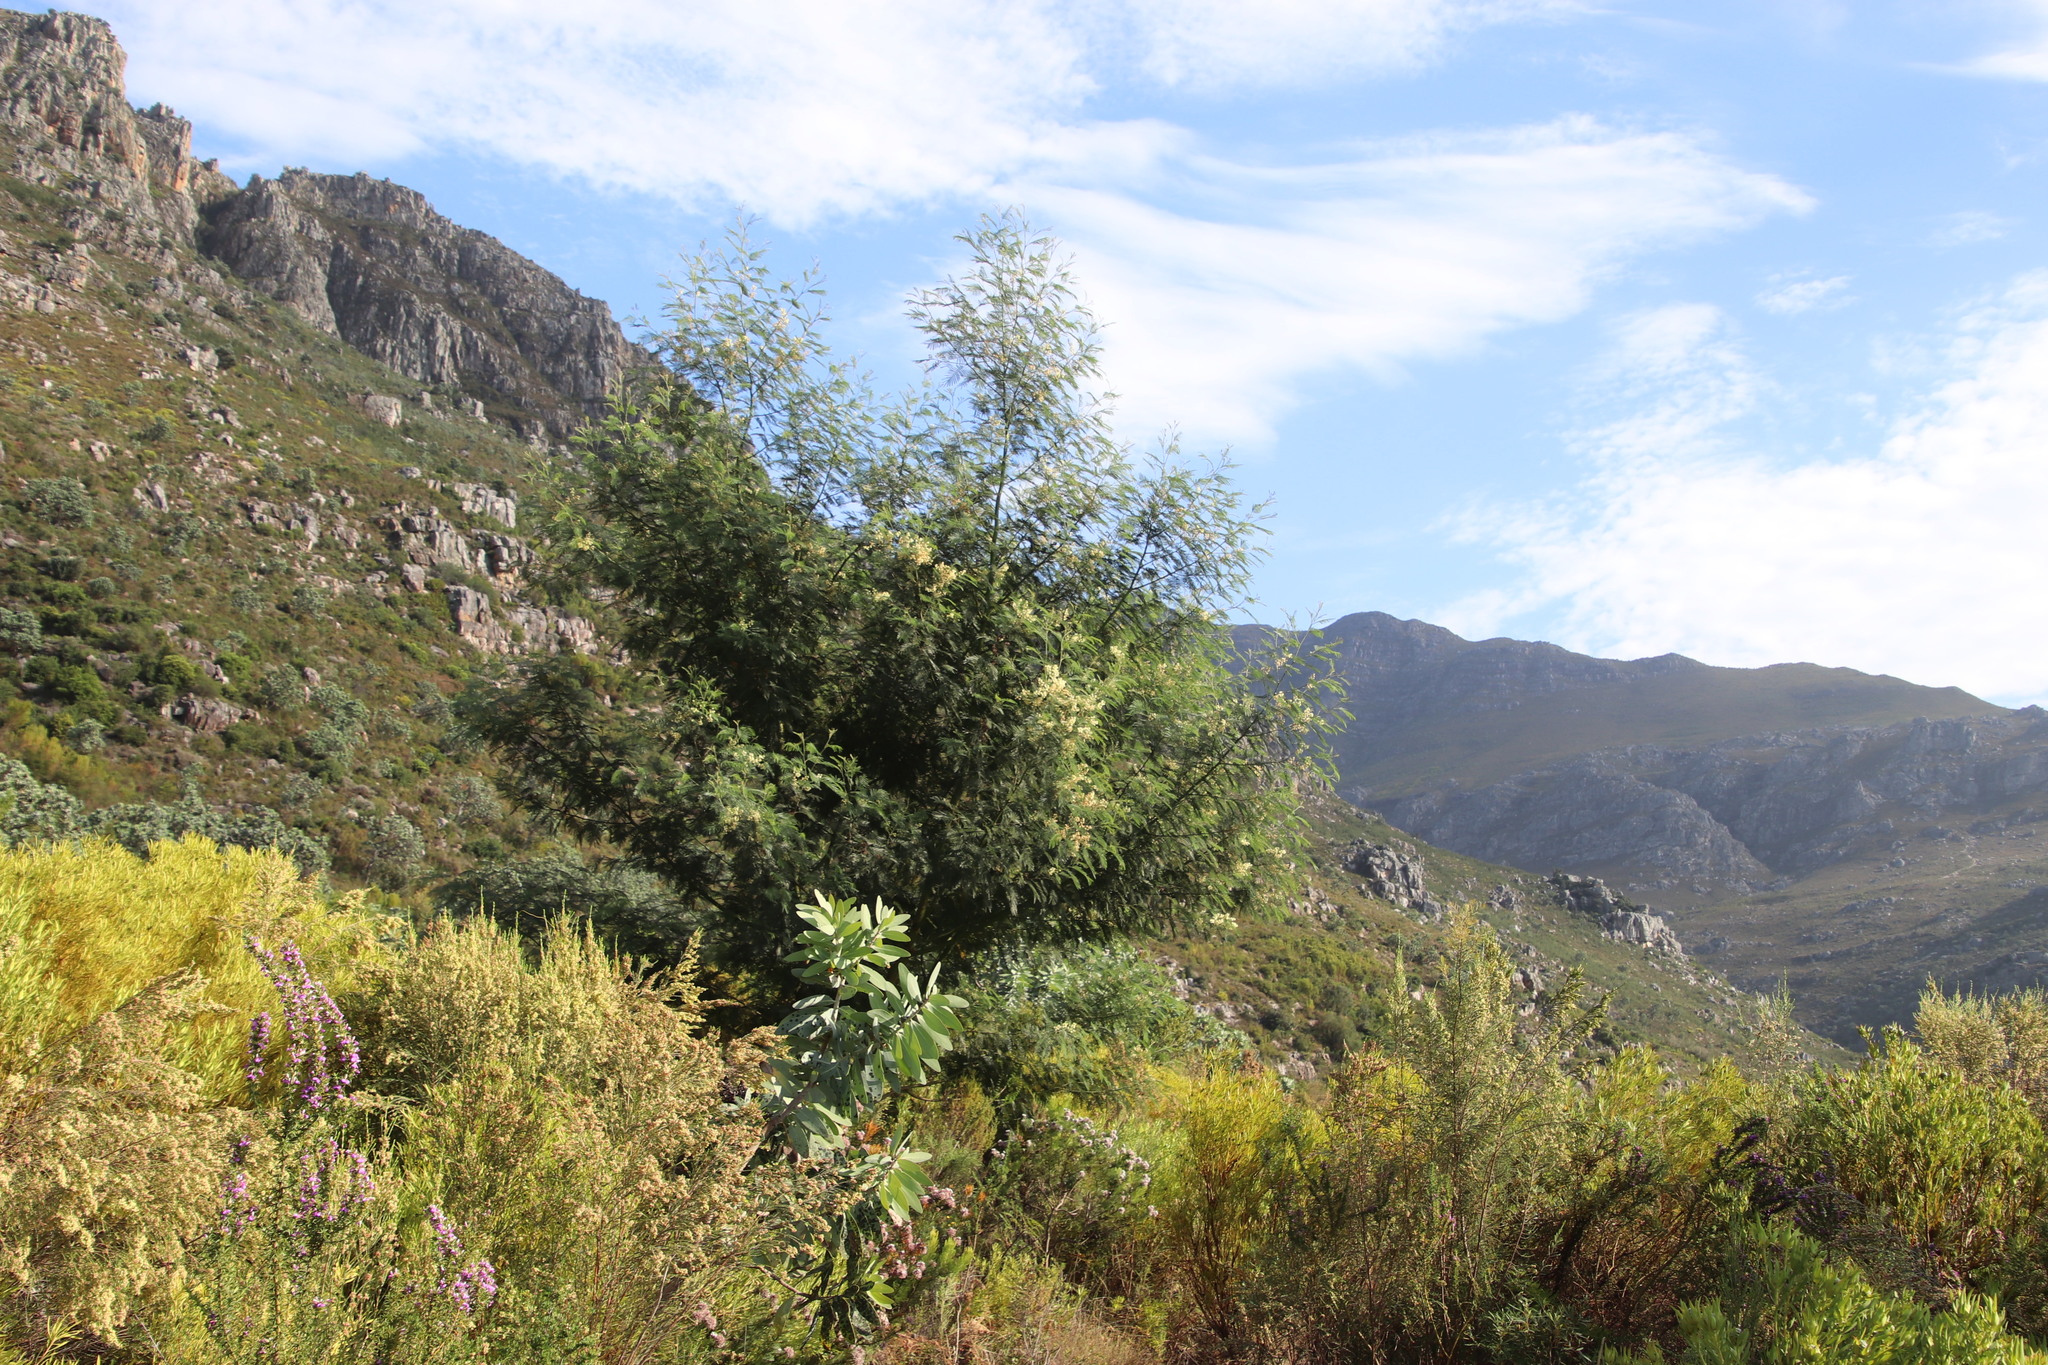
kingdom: Plantae
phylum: Tracheophyta
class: Magnoliopsida
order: Fabales
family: Fabaceae
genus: Acacia
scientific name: Acacia mearnsii
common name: Black wattle
